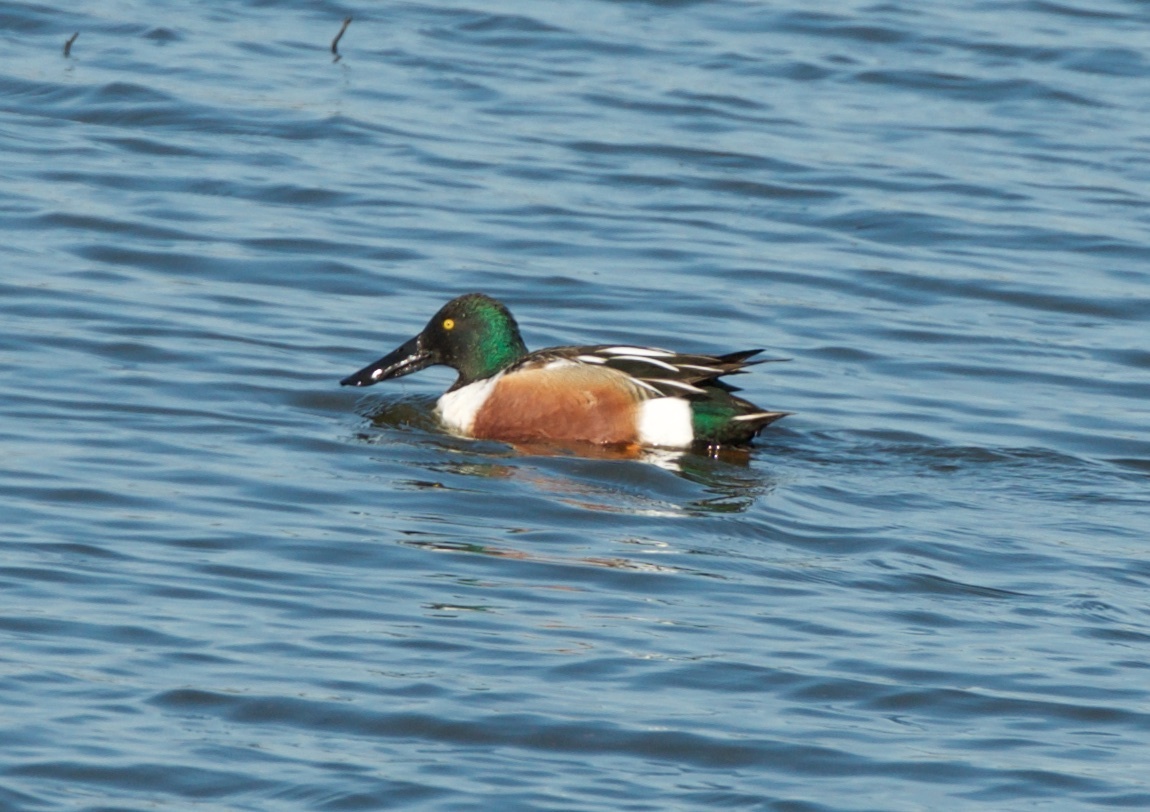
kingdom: Animalia
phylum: Chordata
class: Aves
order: Anseriformes
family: Anatidae
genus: Spatula
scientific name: Spatula clypeata
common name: Northern shoveler
